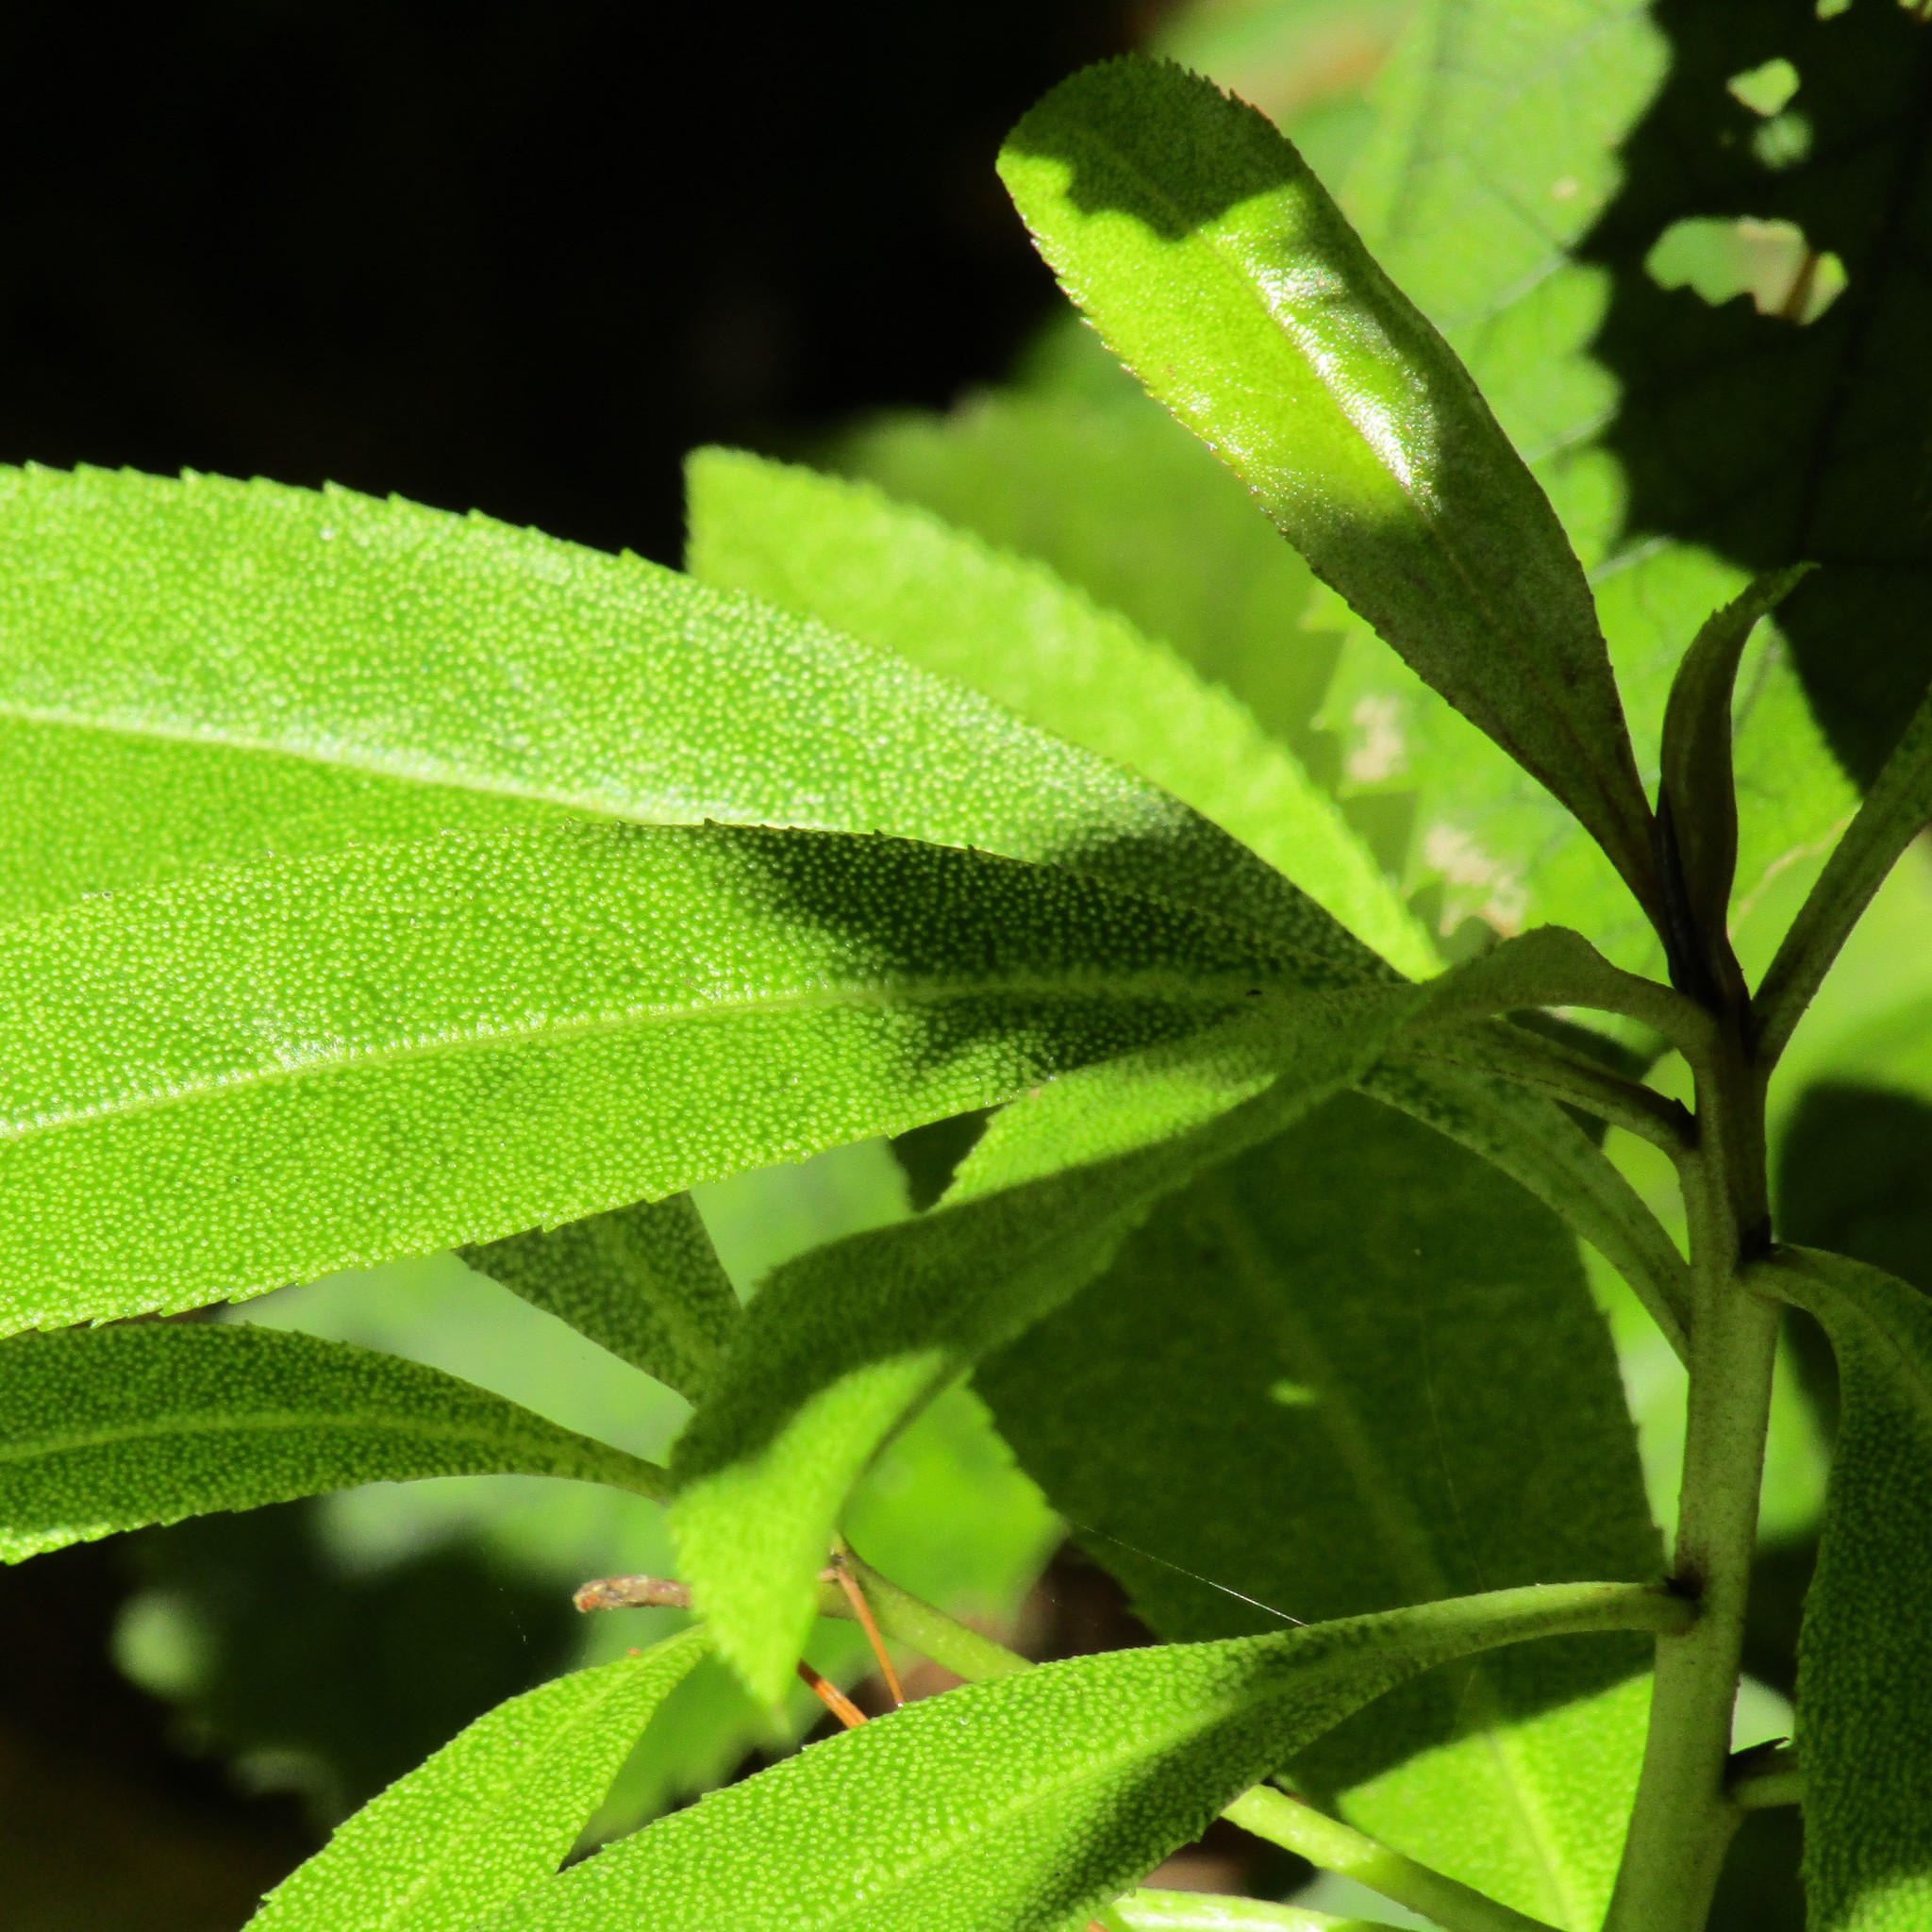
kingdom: Plantae
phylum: Tracheophyta
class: Magnoliopsida
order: Lamiales
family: Scrophulariaceae
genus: Myoporum
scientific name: Myoporum laetum
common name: Ngaio tree
